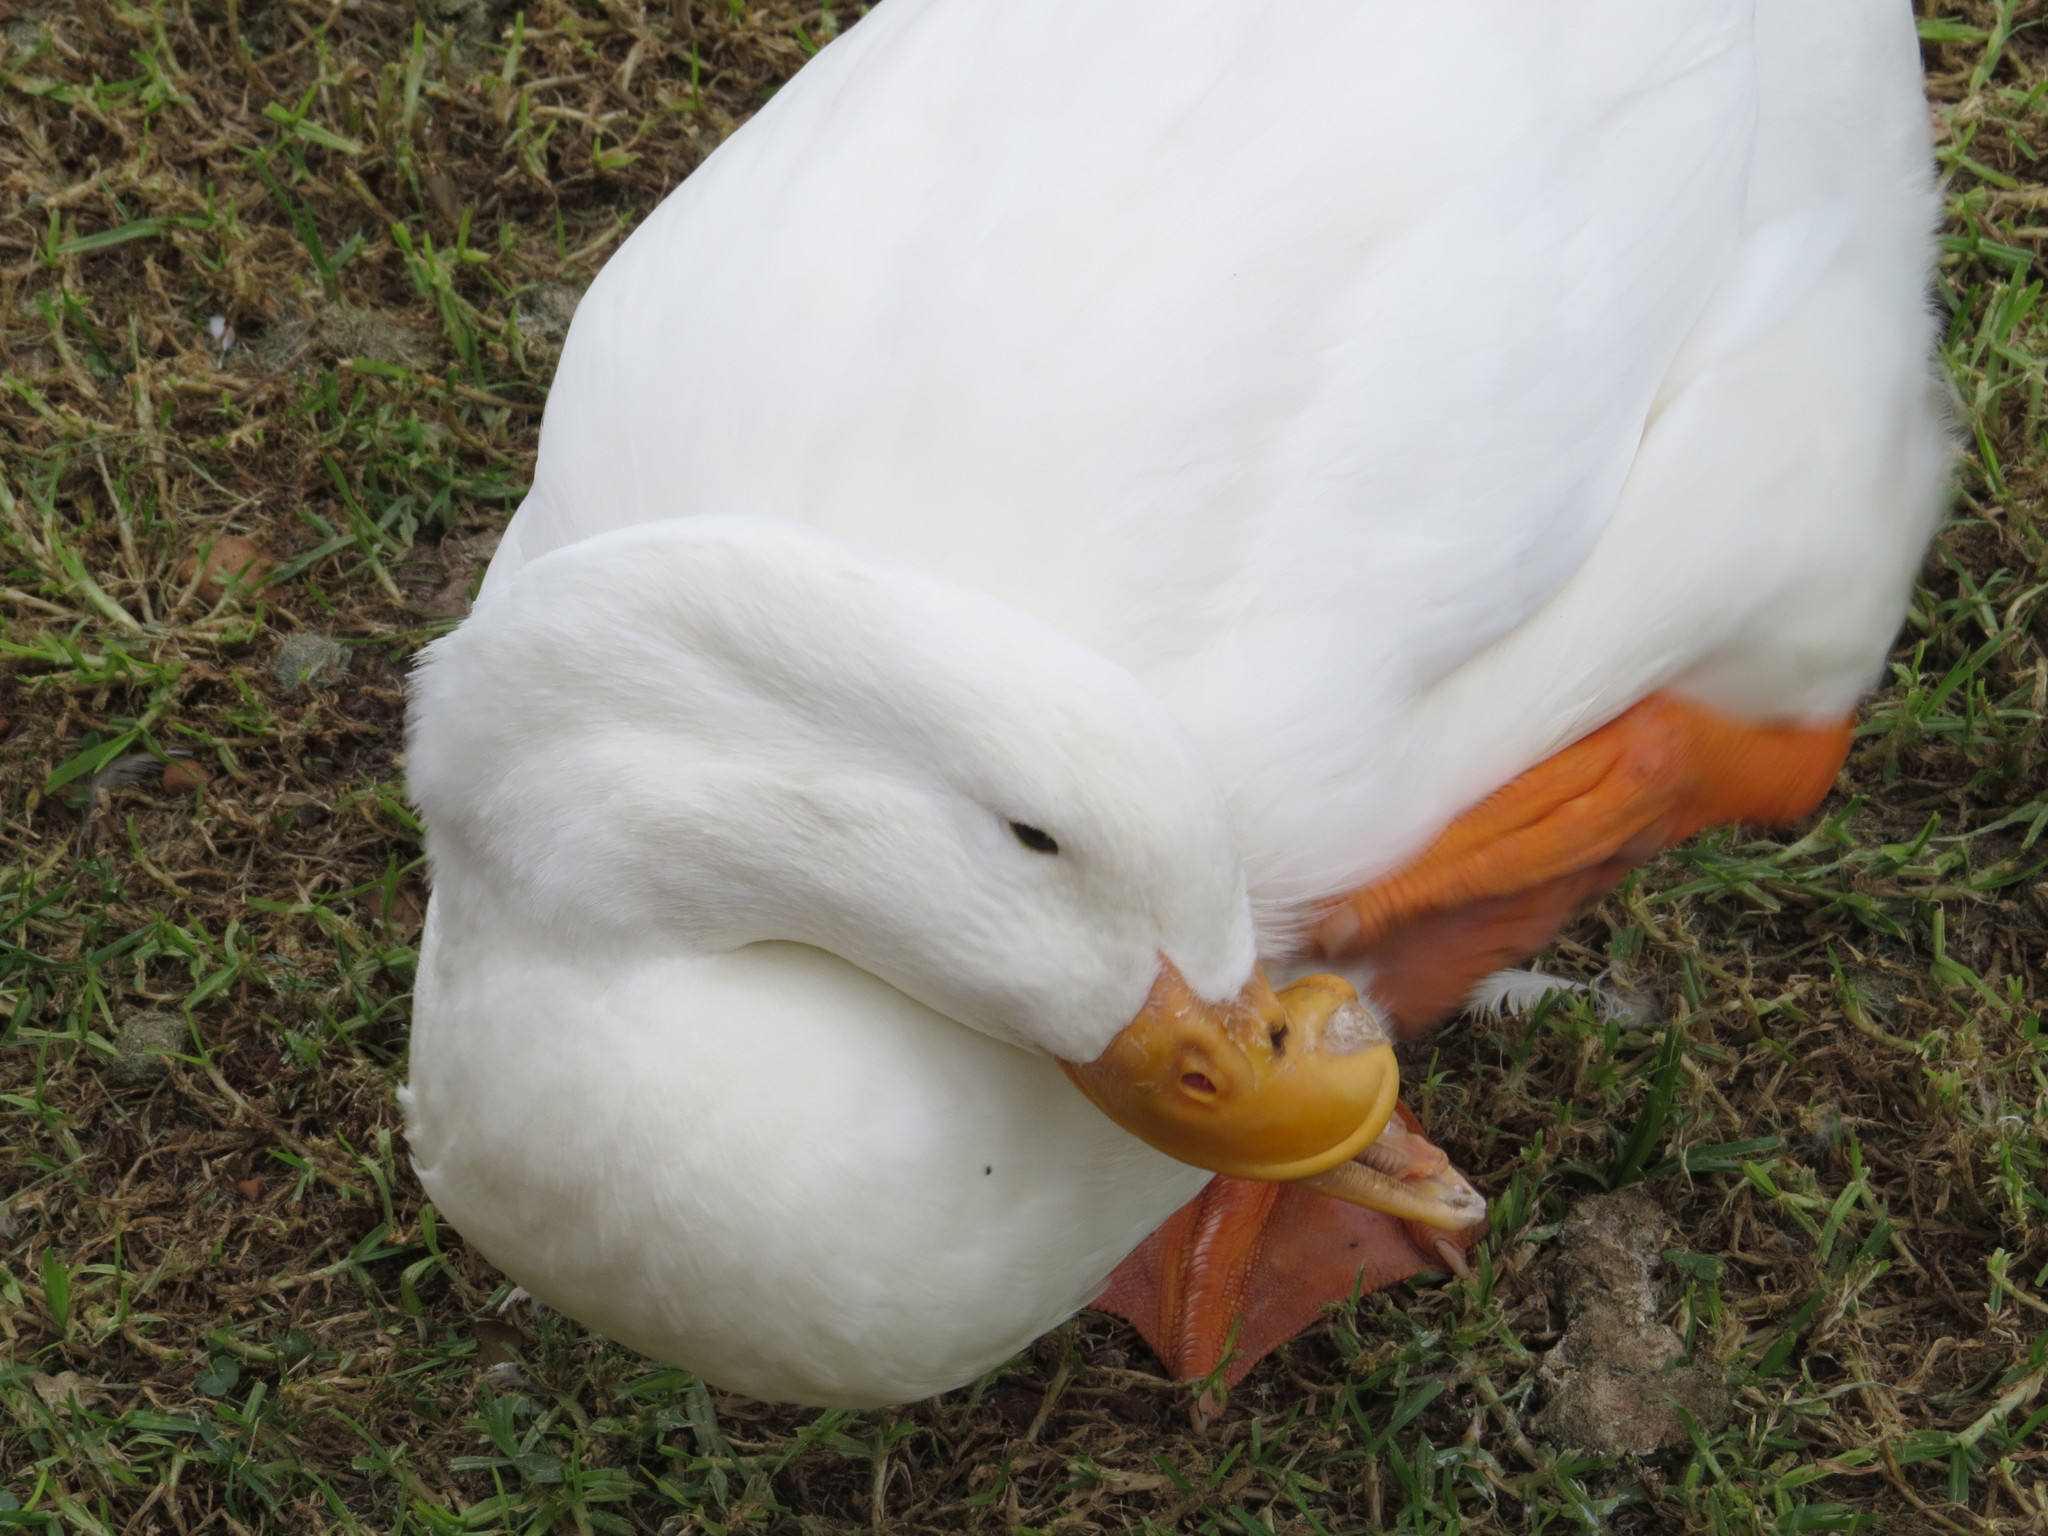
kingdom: Animalia
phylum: Chordata
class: Aves
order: Anseriformes
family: Anatidae
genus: Anas
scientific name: Anas platyrhynchos
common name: Mallard
